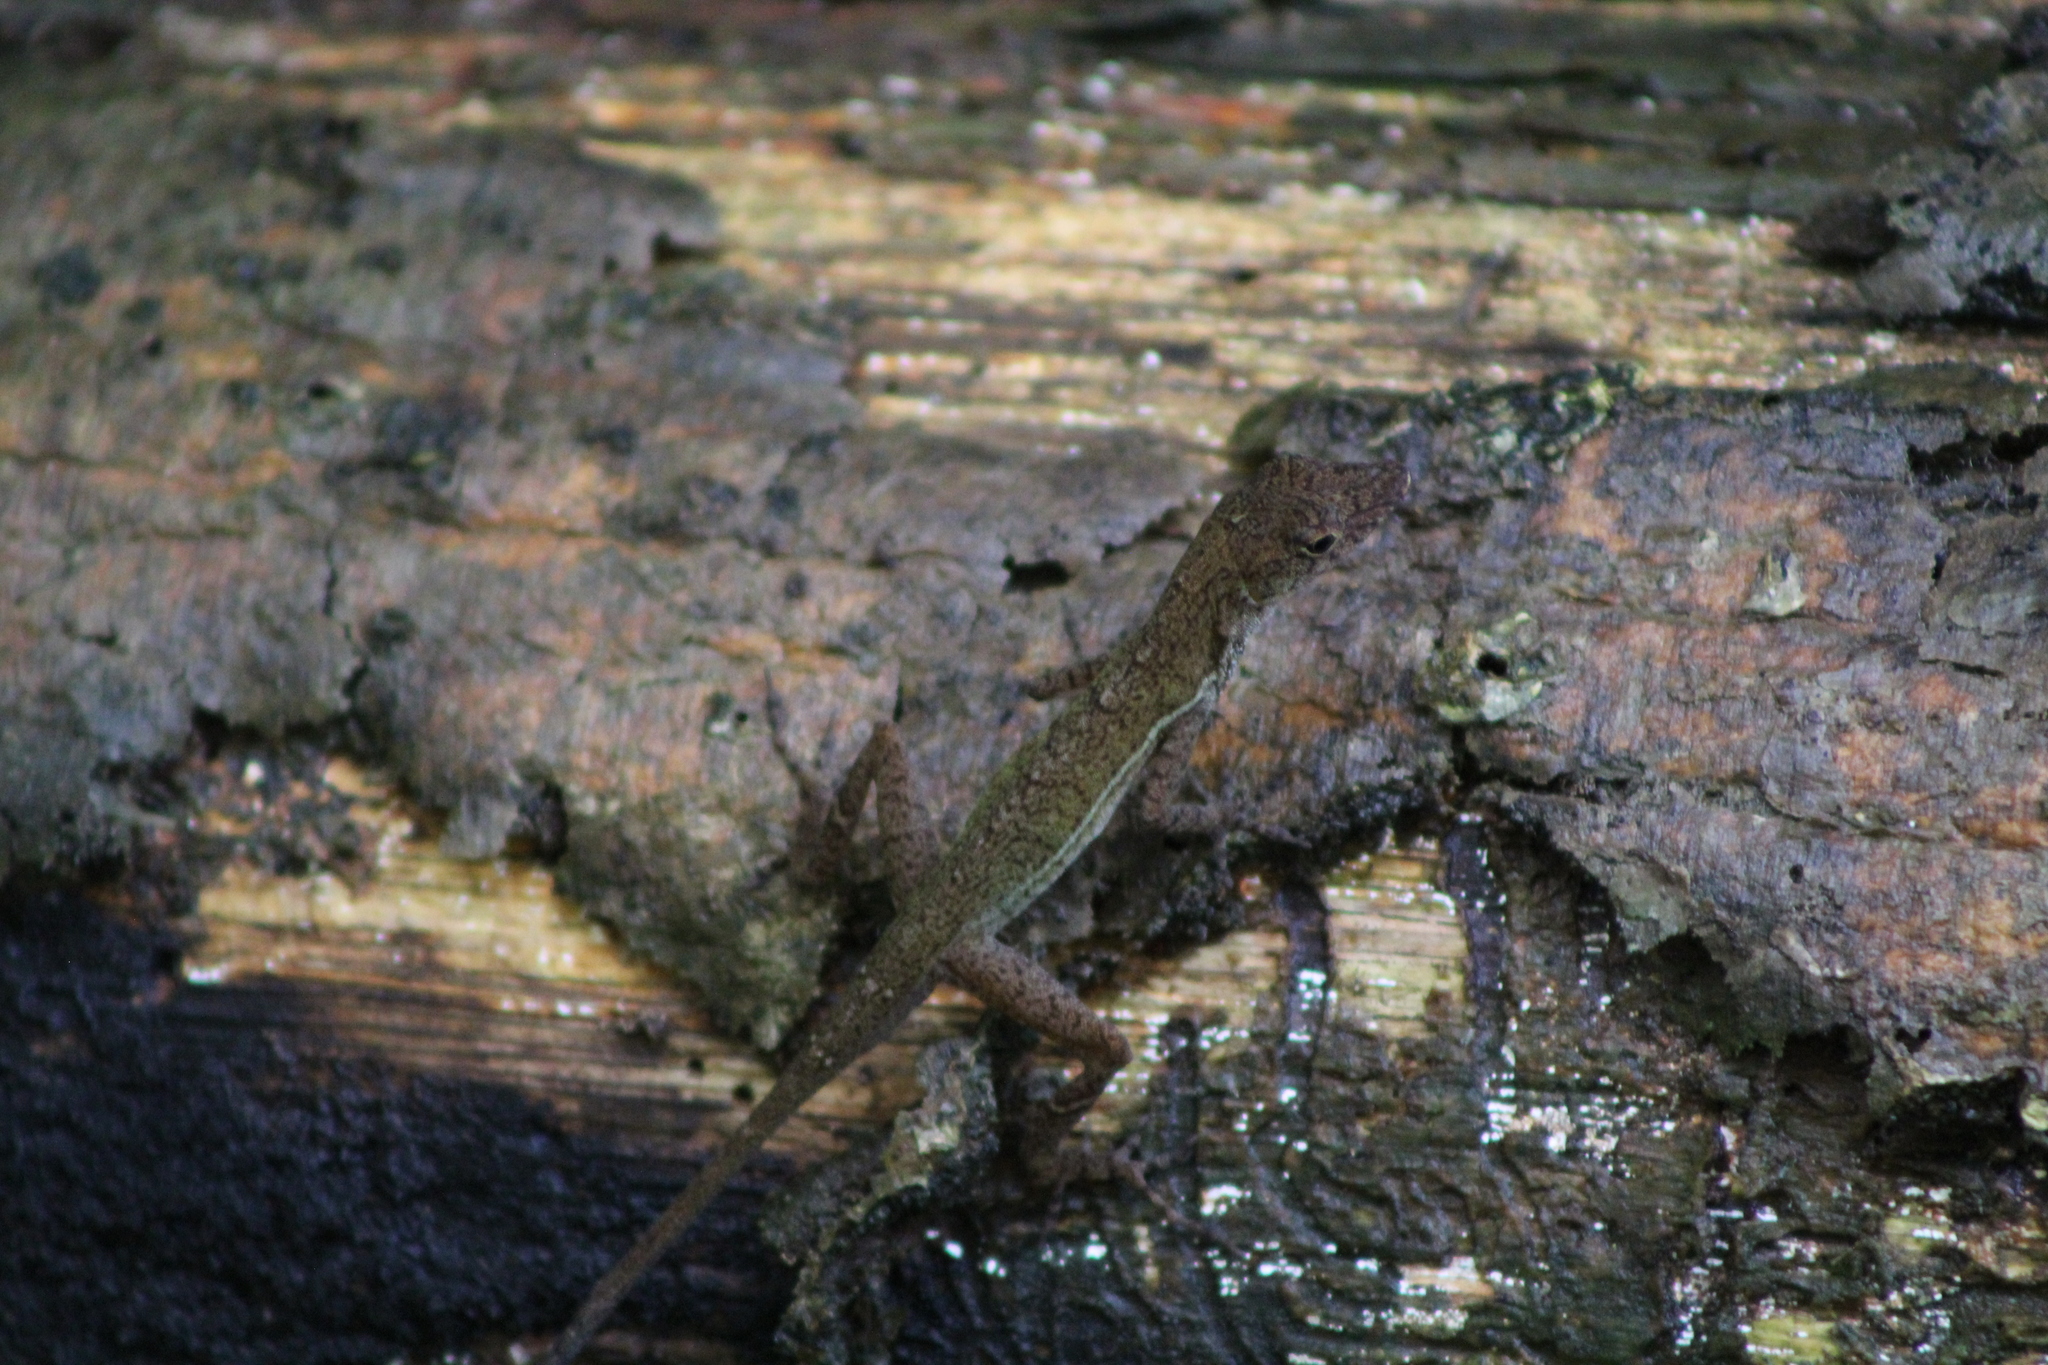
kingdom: Animalia
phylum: Chordata
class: Squamata
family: Dactyloidae
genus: Anolis
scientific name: Anolis limifrons
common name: Border anole
